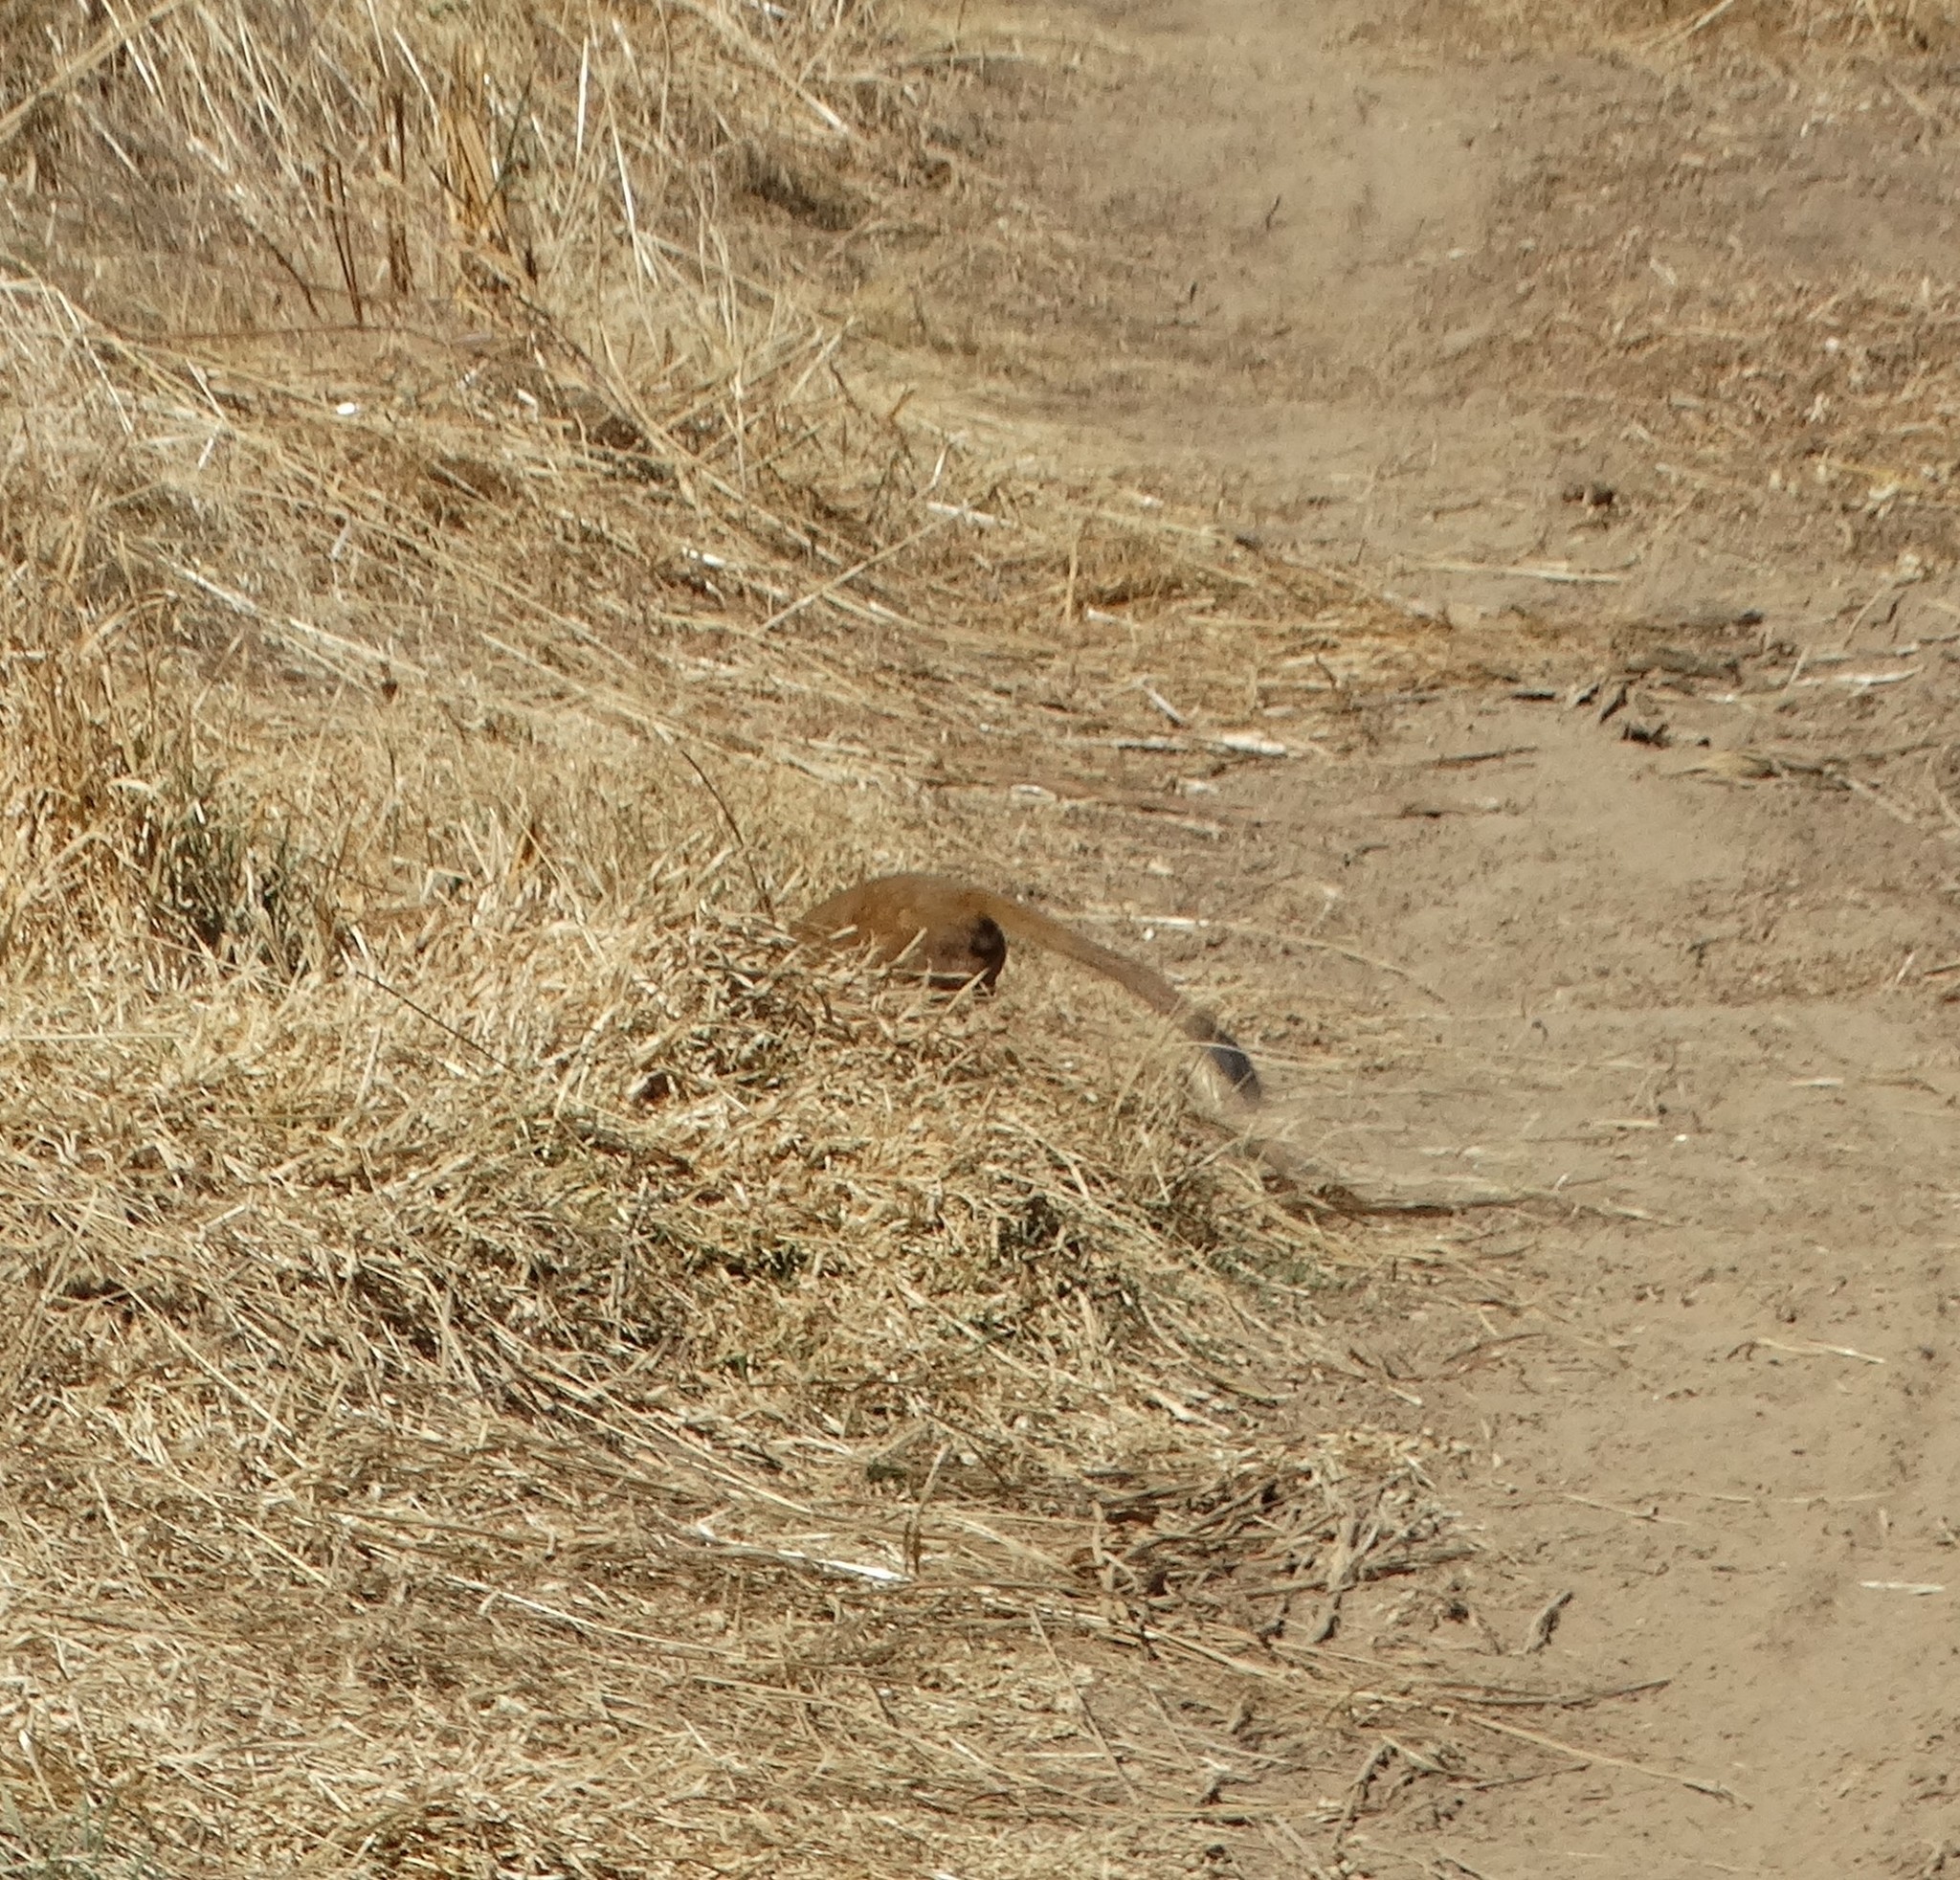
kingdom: Animalia
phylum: Chordata
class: Mammalia
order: Carnivora
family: Mustelidae
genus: Mustela
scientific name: Mustela
